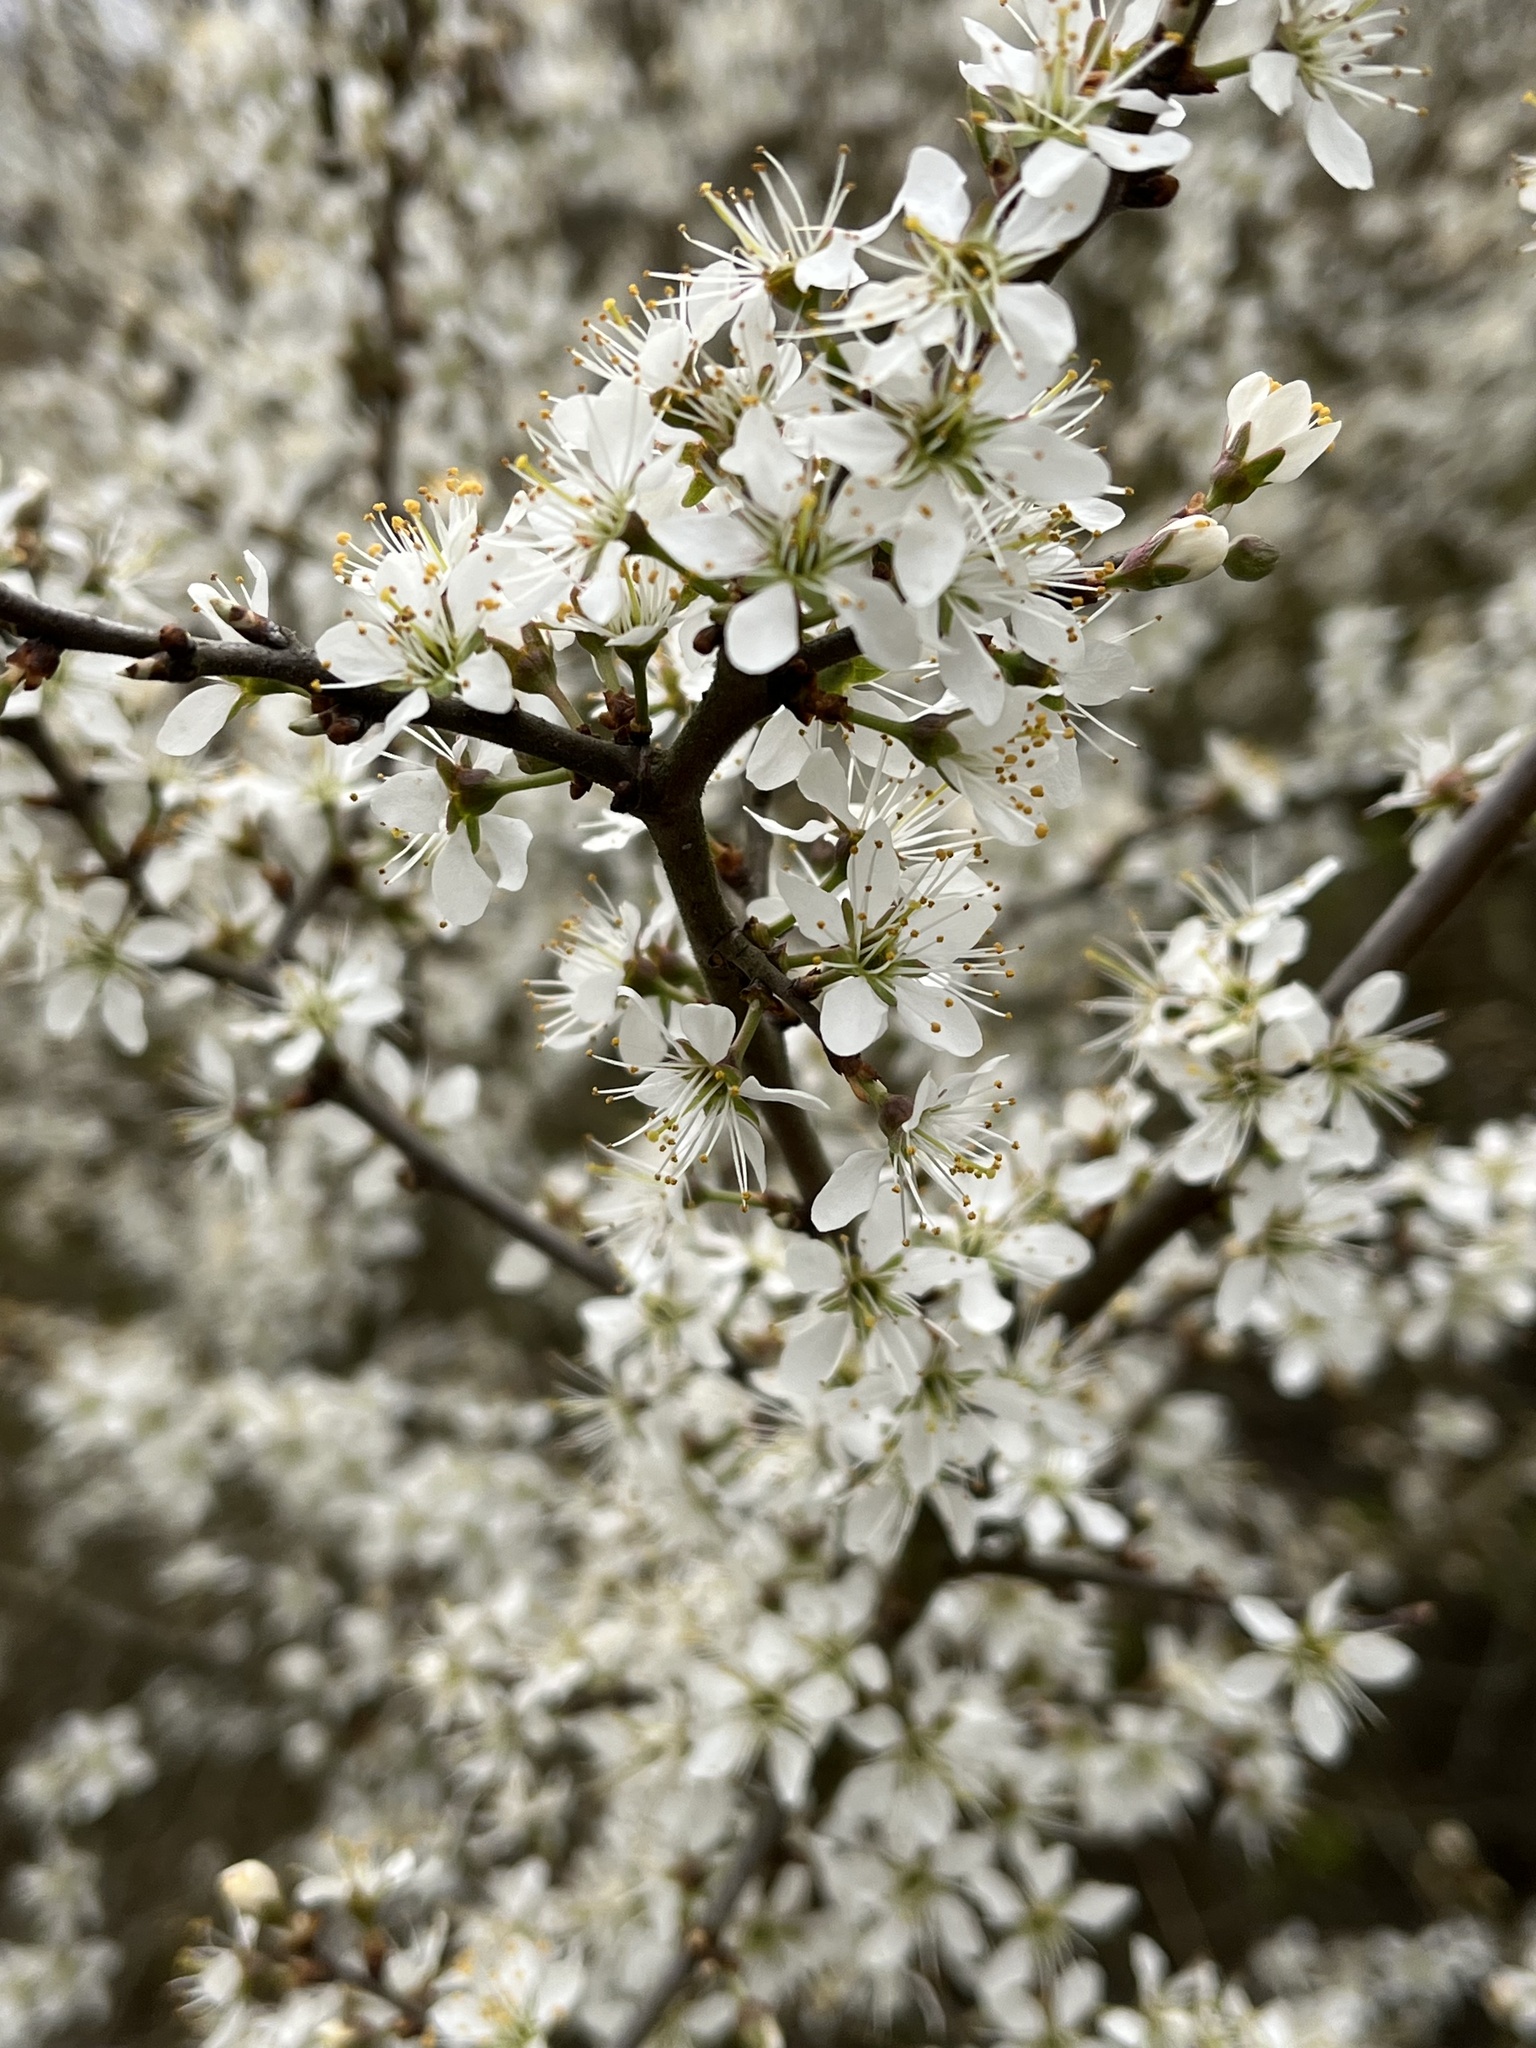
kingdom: Plantae
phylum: Tracheophyta
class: Magnoliopsida
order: Rosales
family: Rosaceae
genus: Prunus
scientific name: Prunus spinosa
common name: Blackthorn
